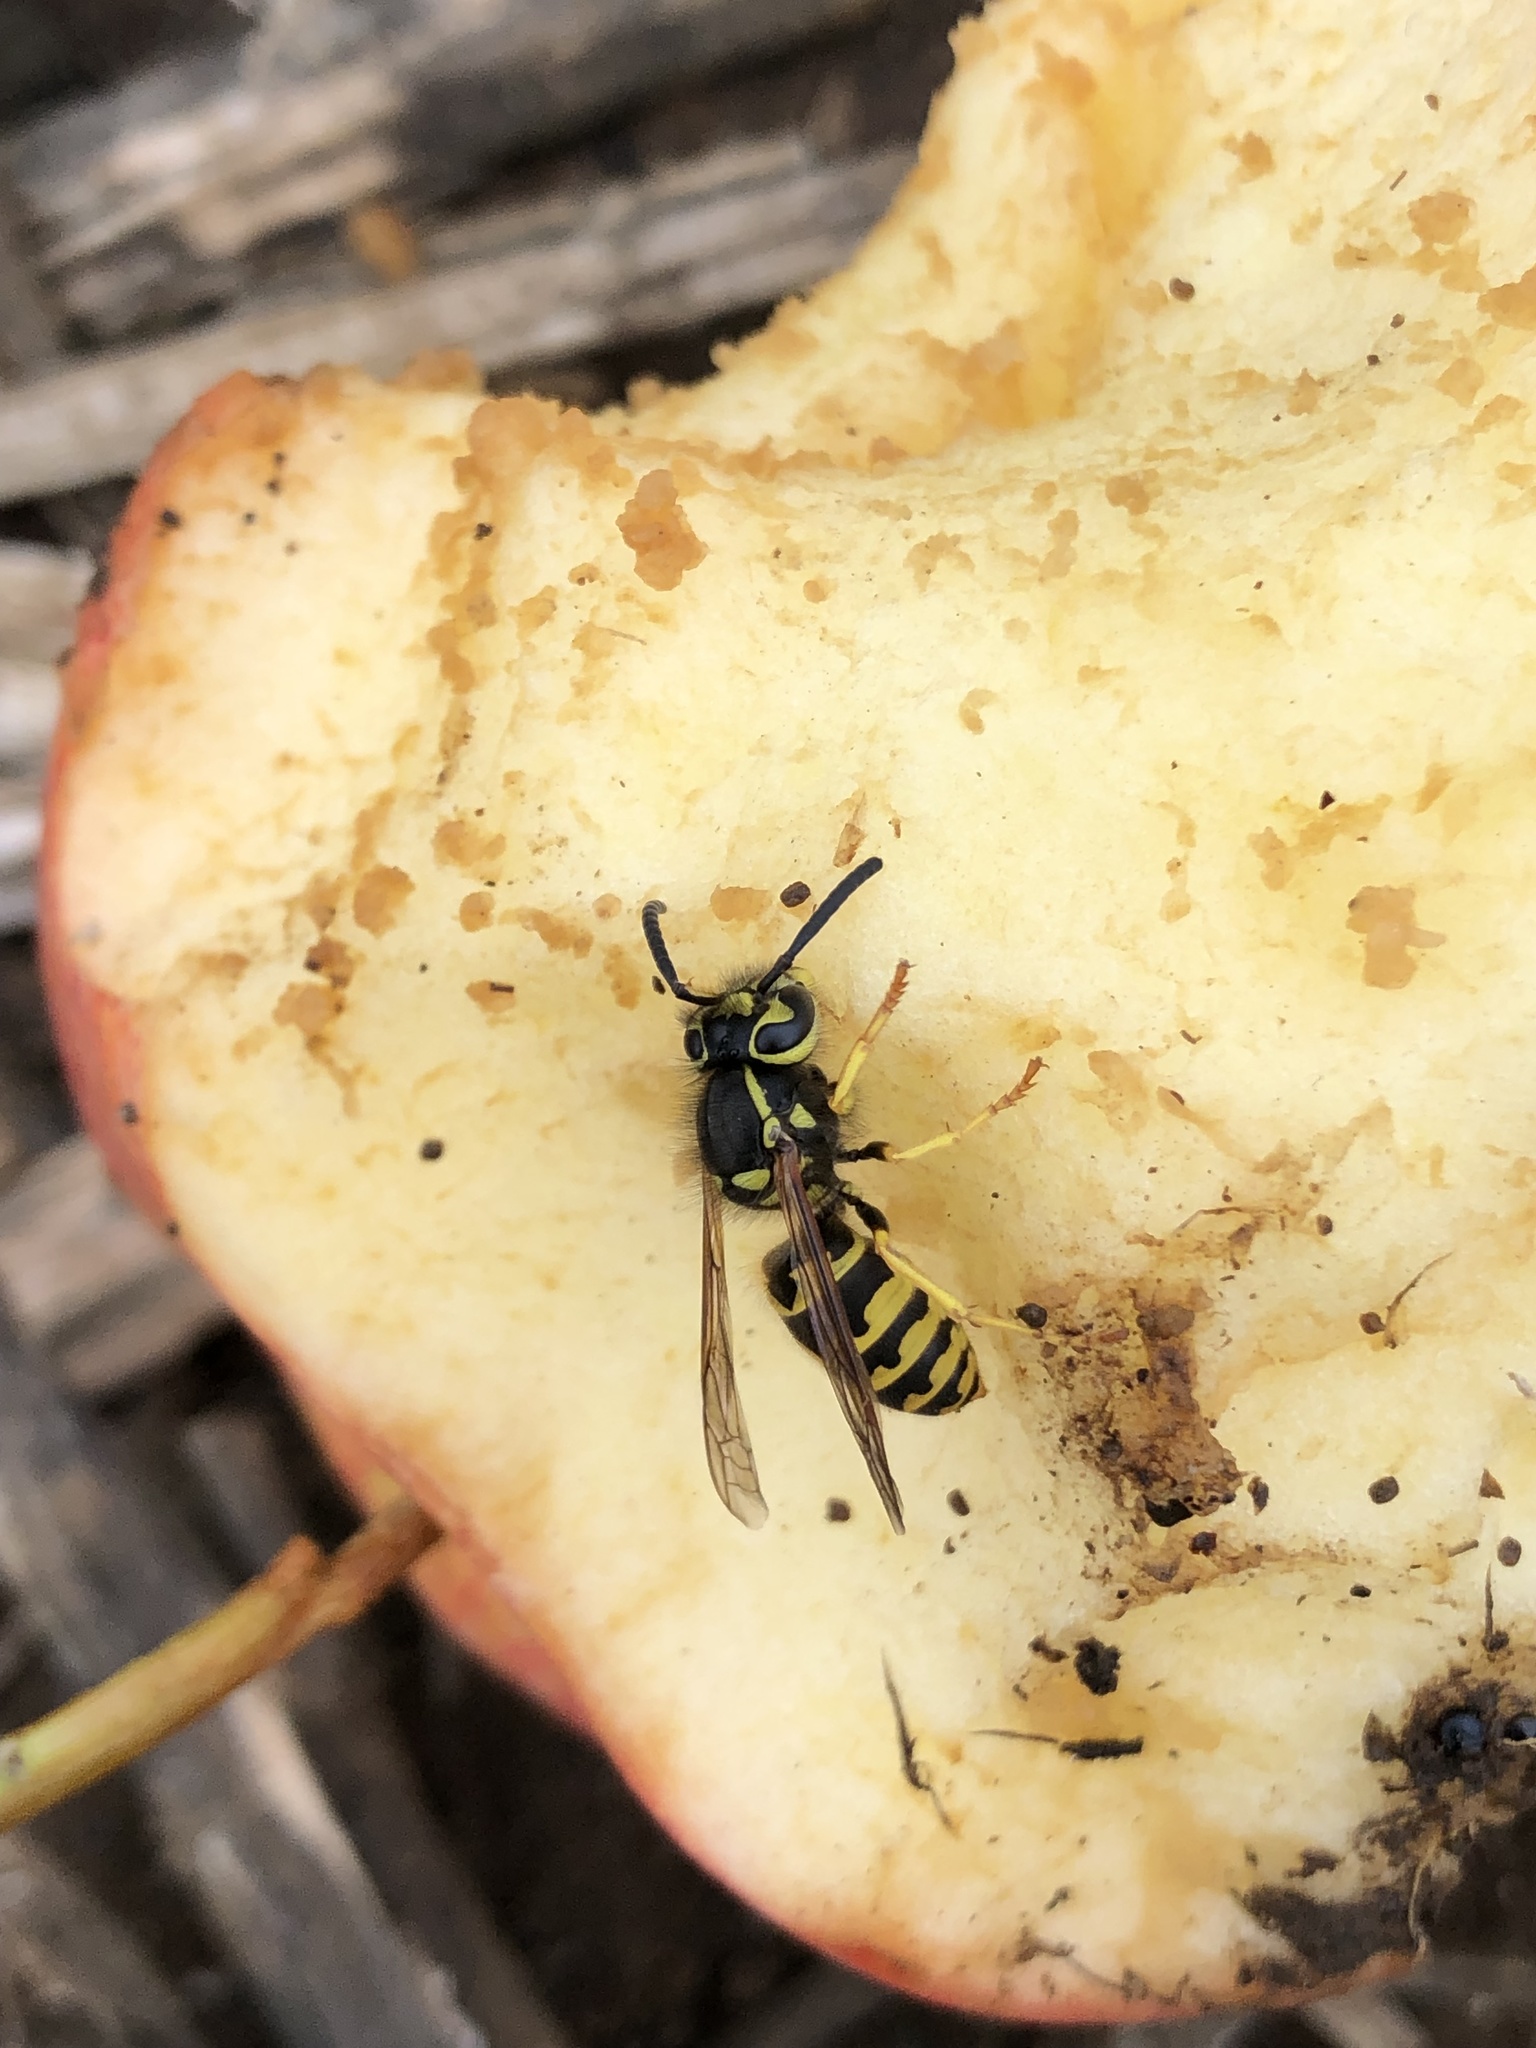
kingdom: Animalia
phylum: Arthropoda
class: Insecta
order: Hymenoptera
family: Vespidae
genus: Vespula
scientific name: Vespula pensylvanica
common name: Western yellowjacket
